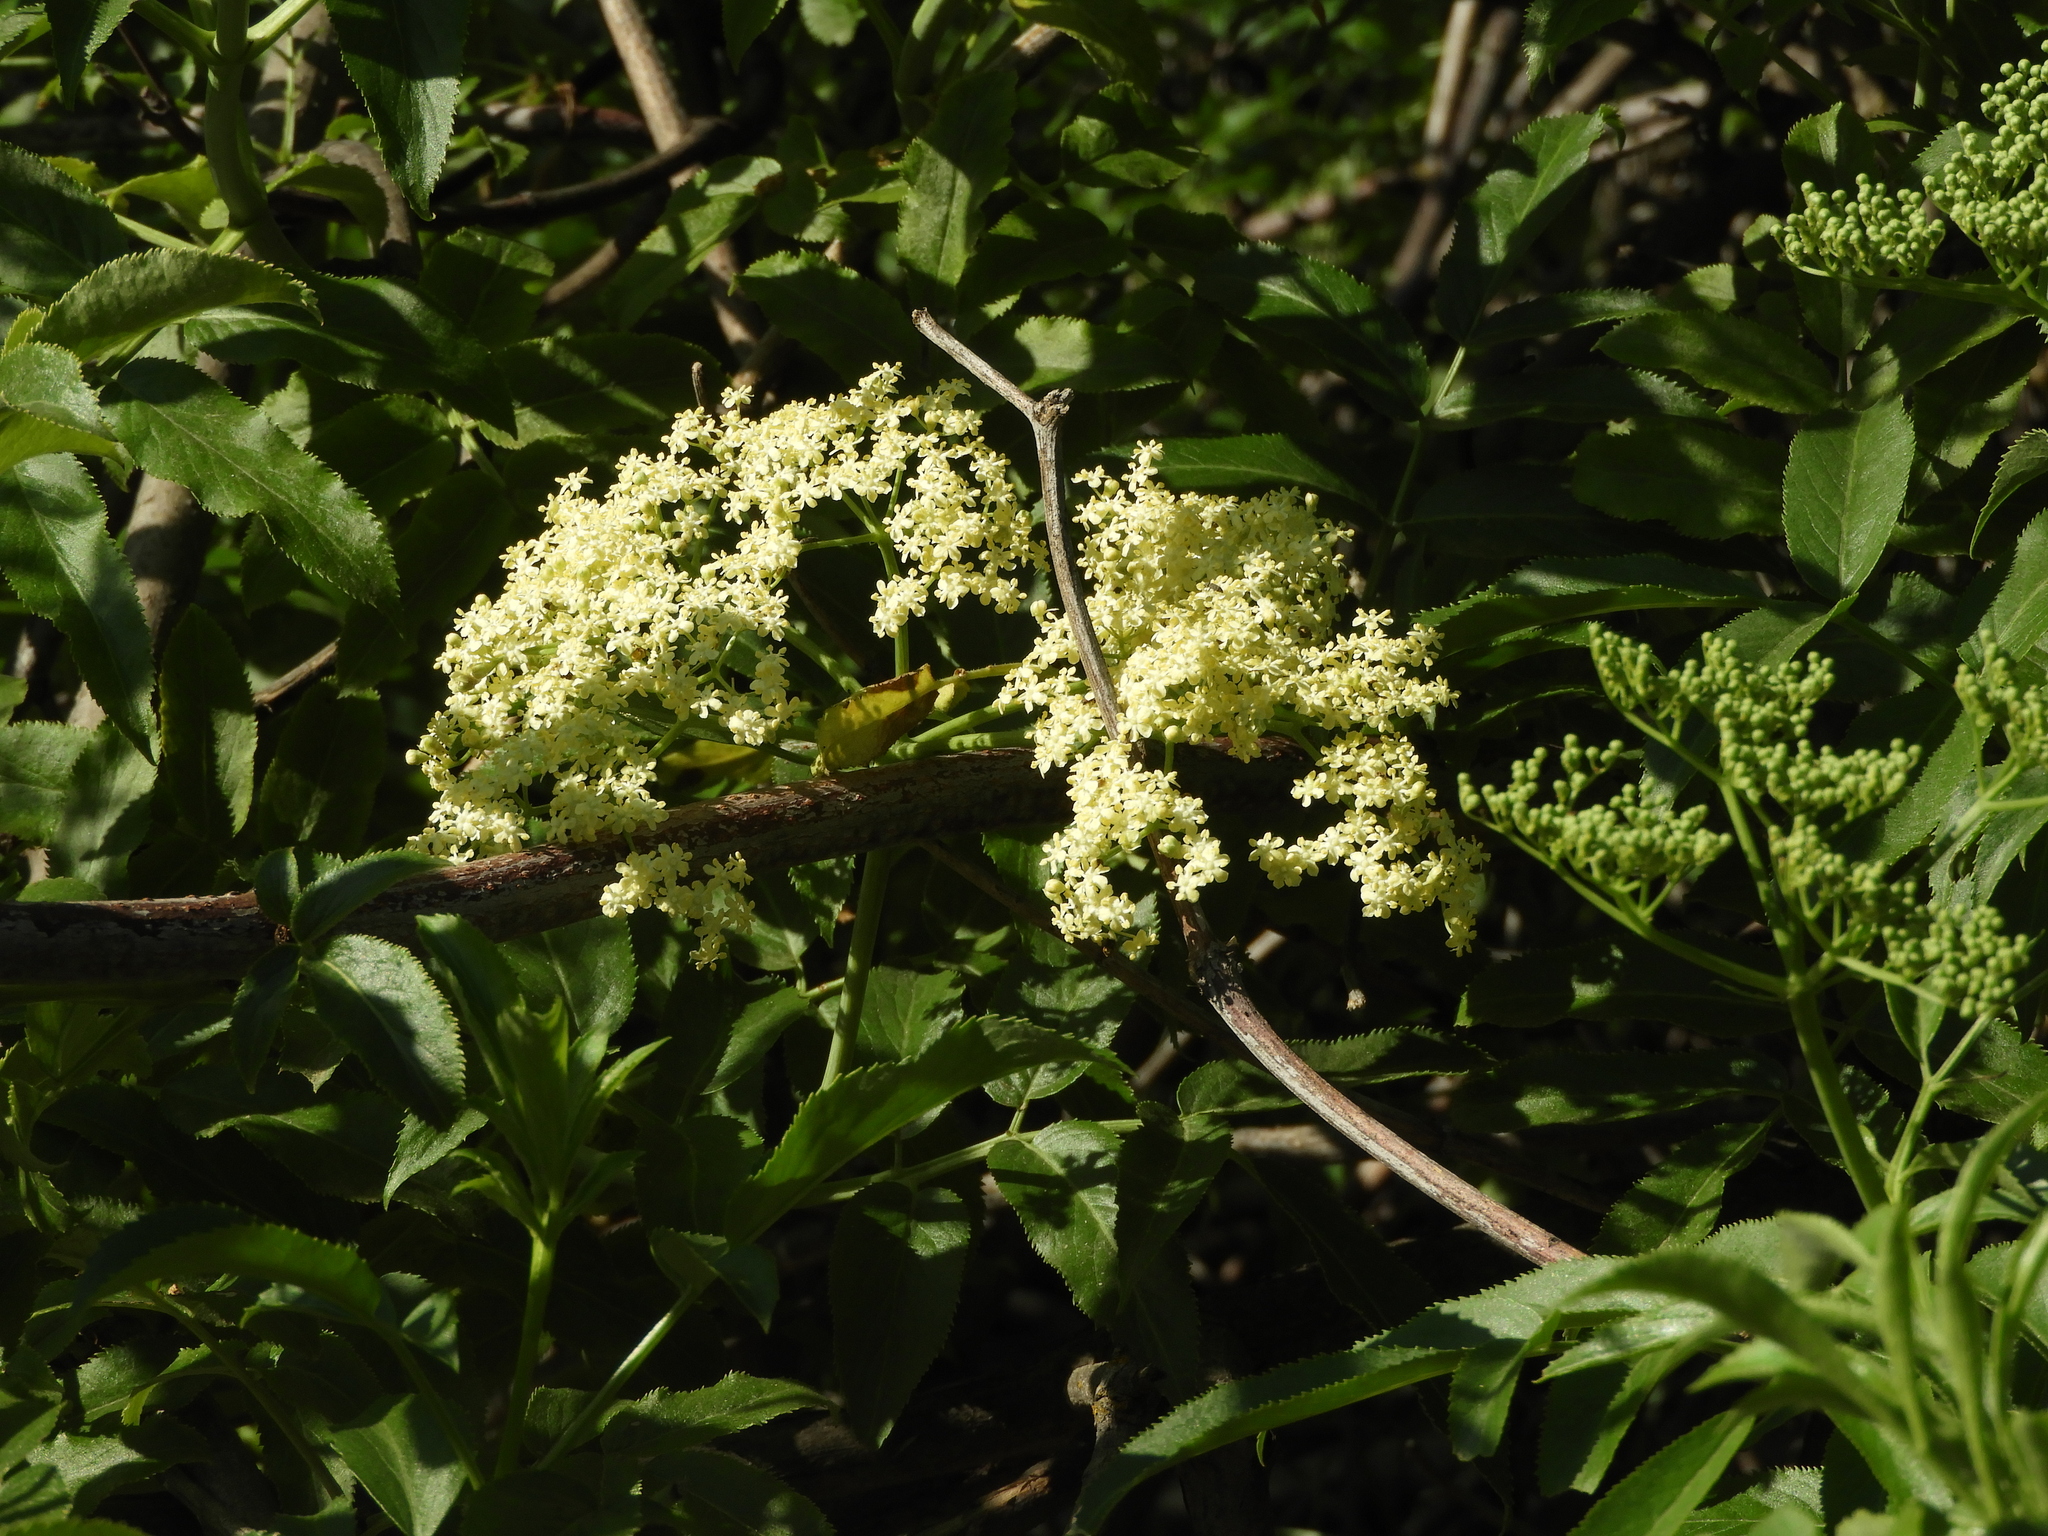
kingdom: Plantae
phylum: Tracheophyta
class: Magnoliopsida
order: Dipsacales
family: Viburnaceae
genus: Sambucus
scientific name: Sambucus cerulea
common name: Blue elder
